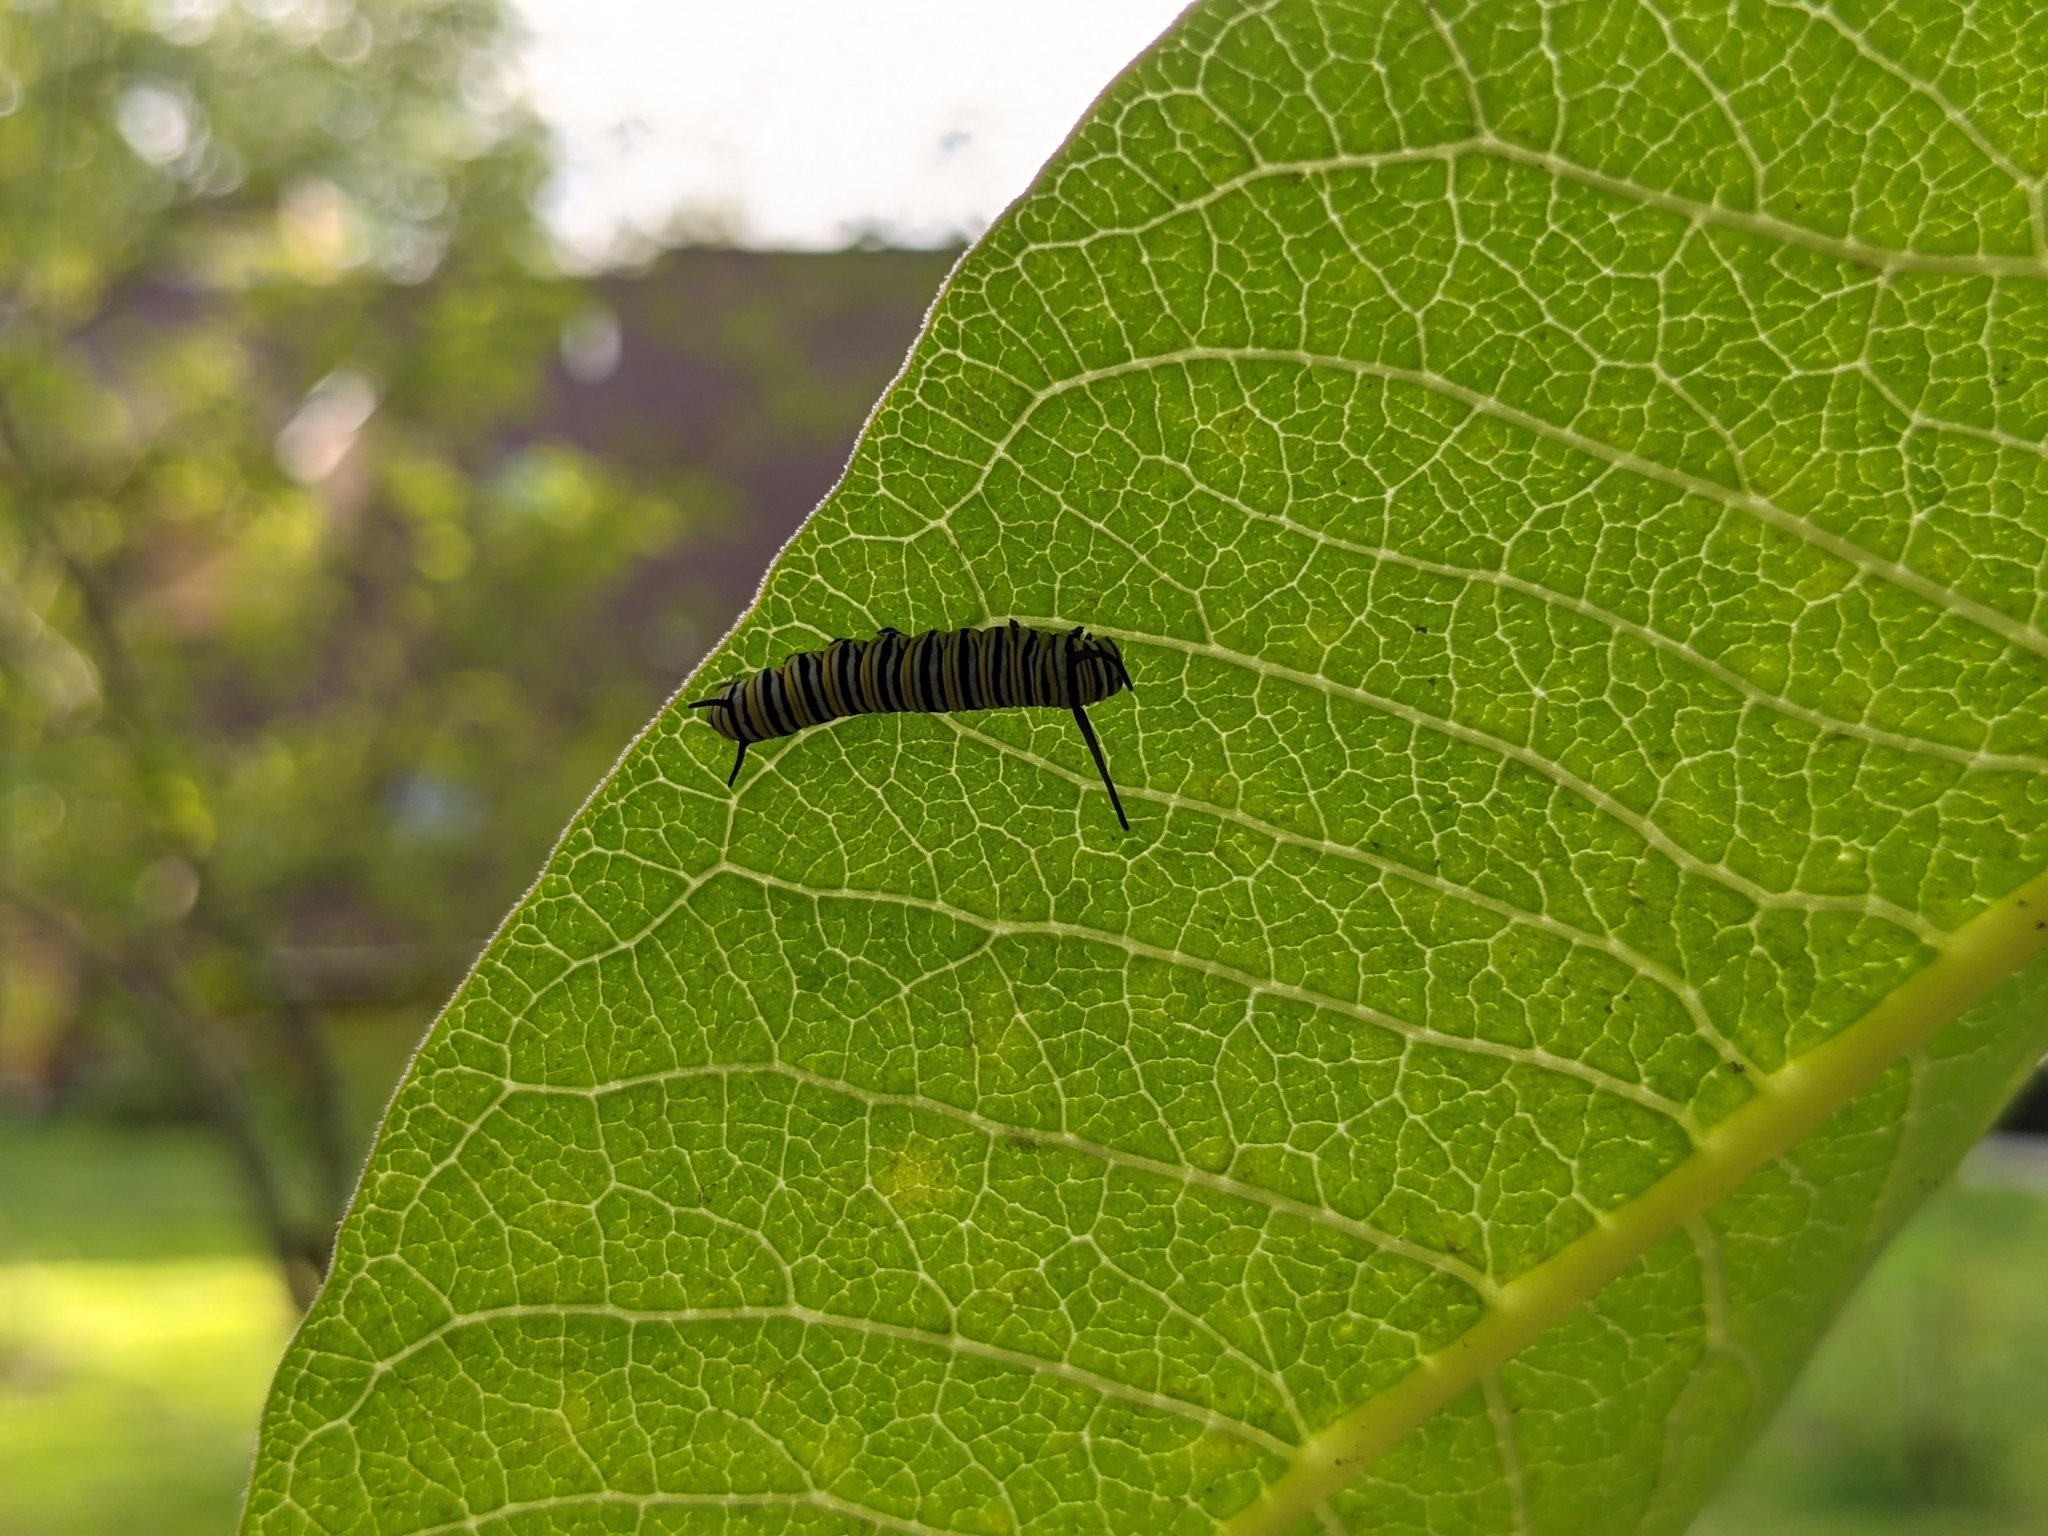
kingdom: Animalia
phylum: Arthropoda
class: Insecta
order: Lepidoptera
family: Nymphalidae
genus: Danaus
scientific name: Danaus plexippus
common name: Monarch
